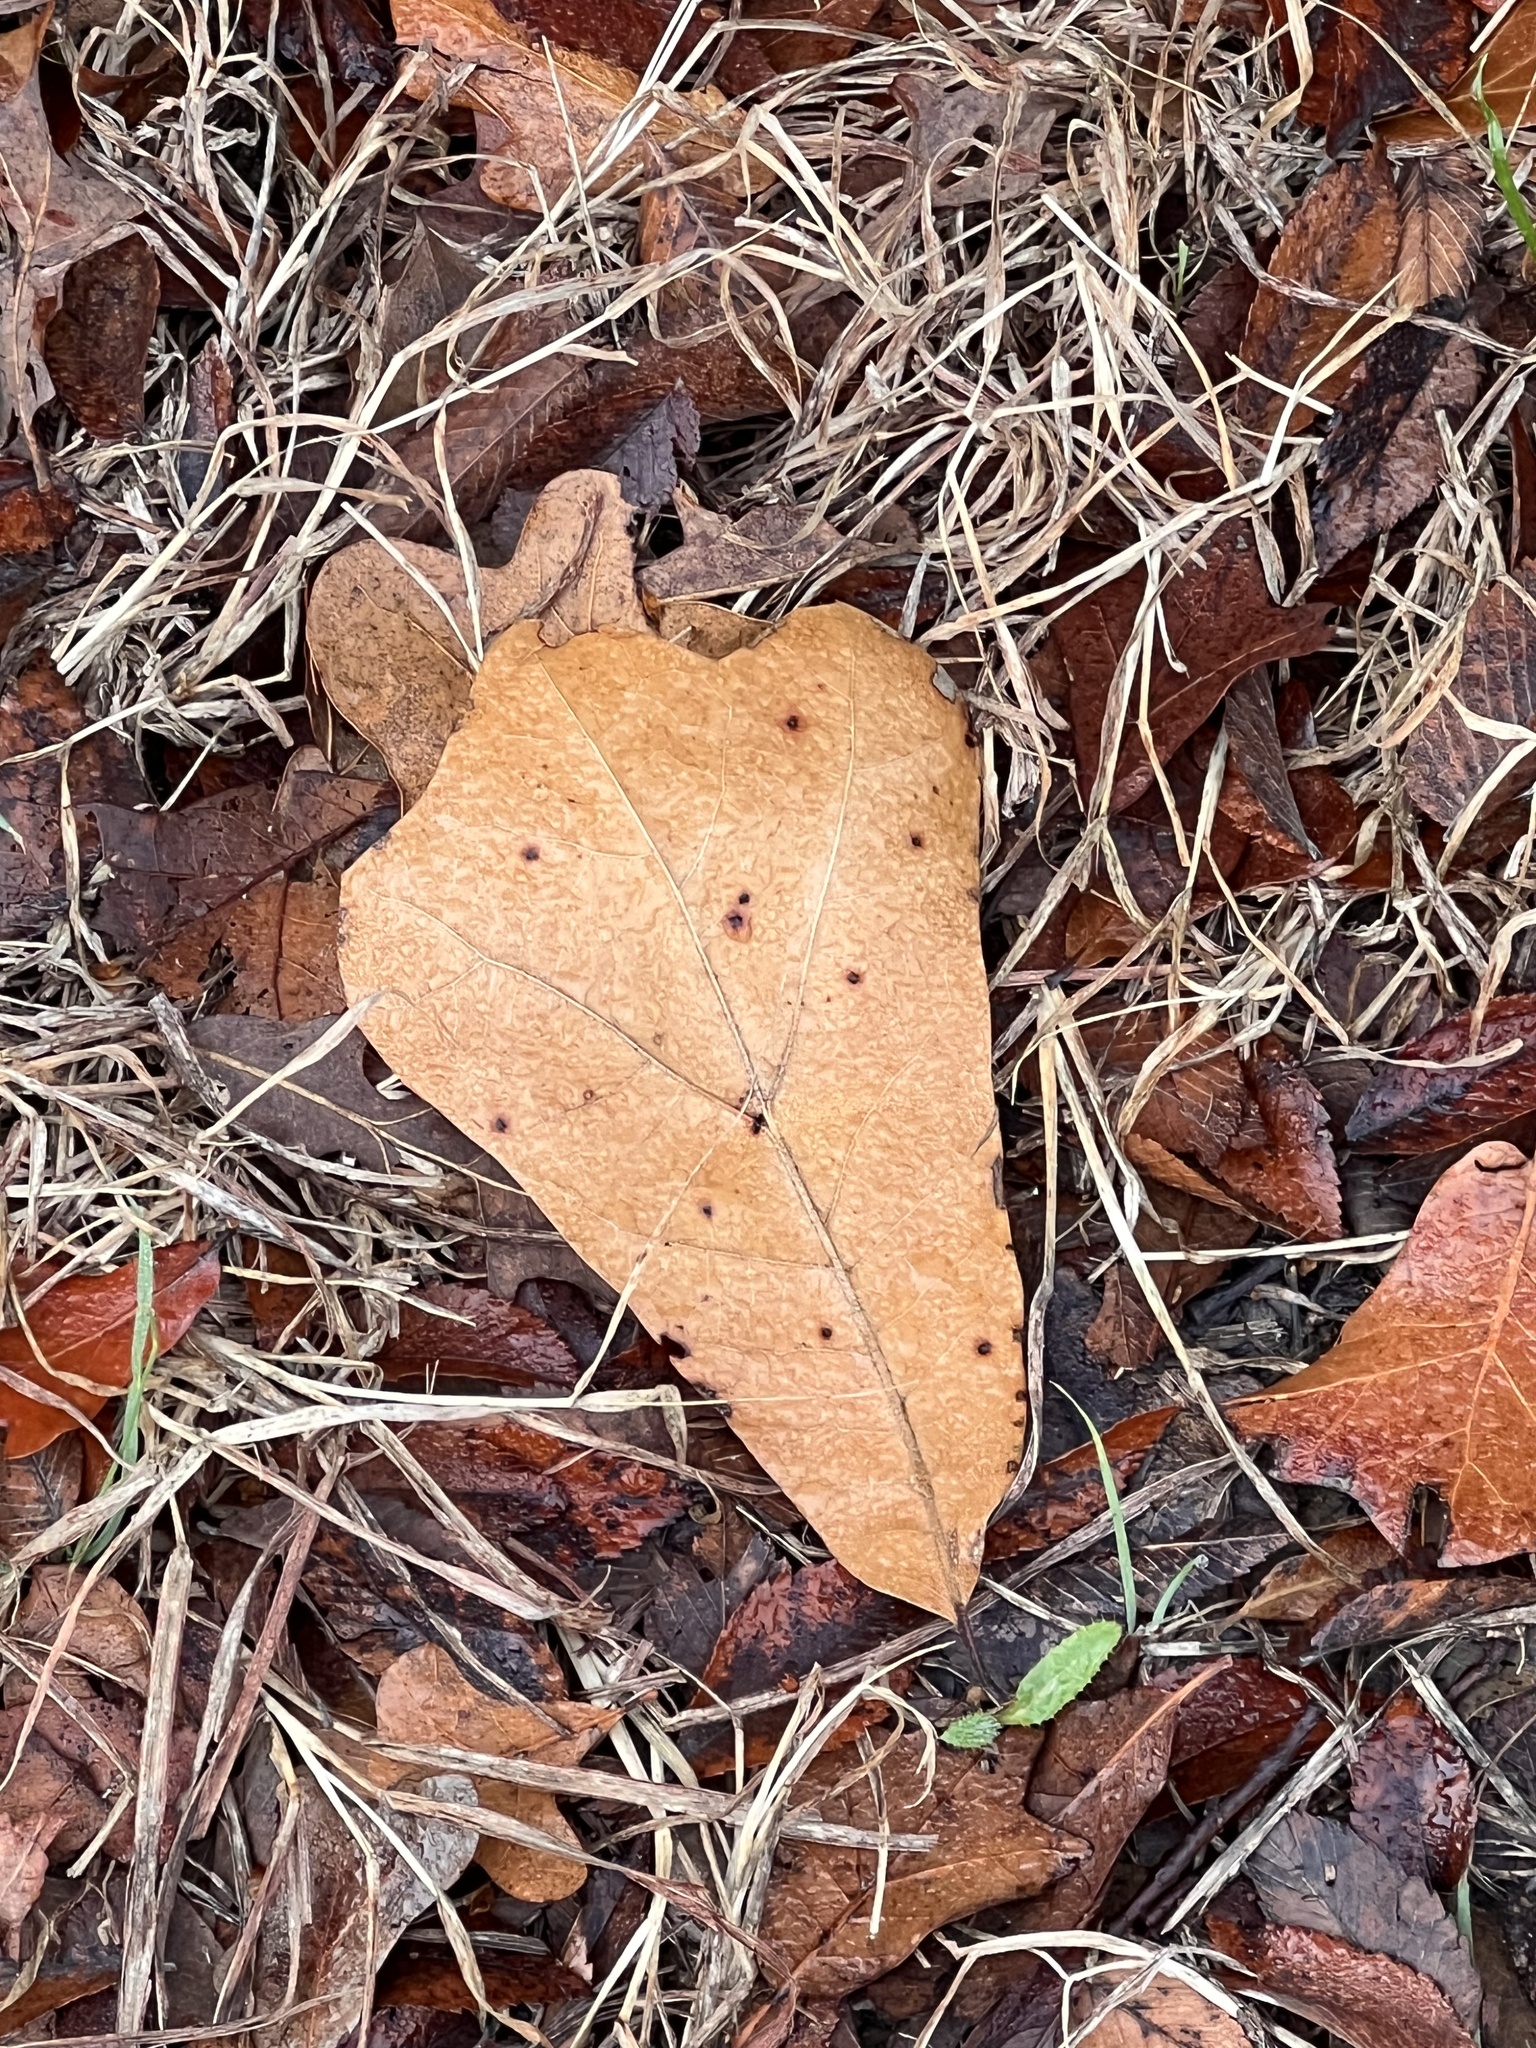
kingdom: Plantae
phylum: Tracheophyta
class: Magnoliopsida
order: Fagales
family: Fagaceae
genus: Quercus
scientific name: Quercus marilandica
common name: Blackjack oak
